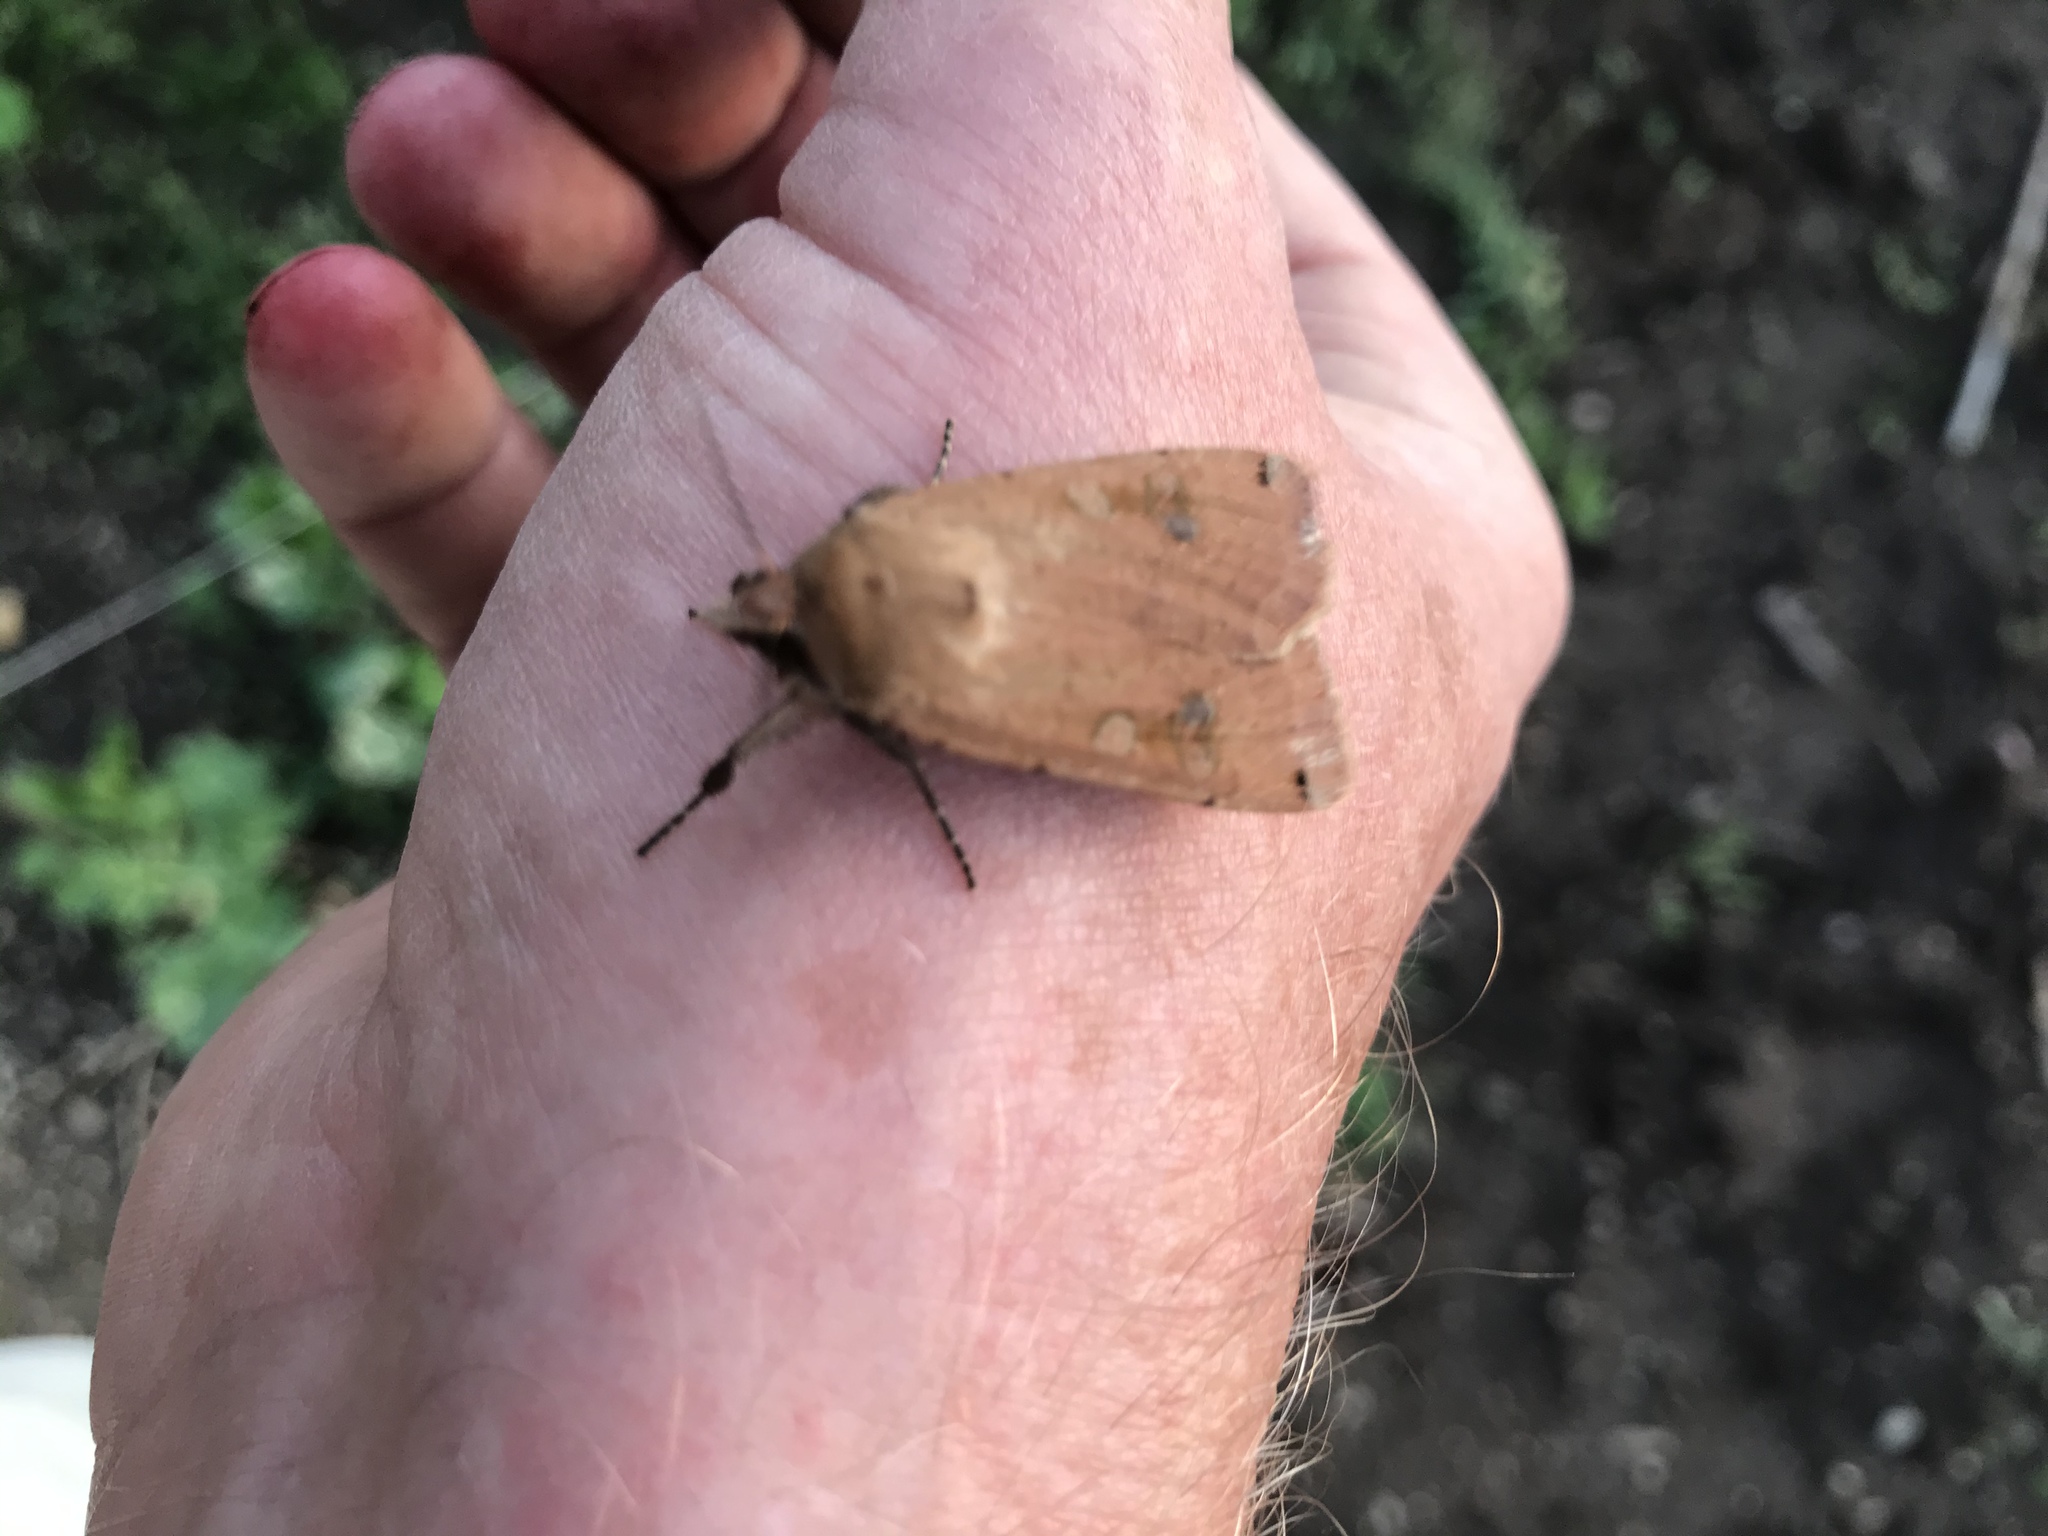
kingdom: Animalia
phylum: Arthropoda
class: Insecta
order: Lepidoptera
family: Noctuidae
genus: Noctua
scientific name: Noctua pronuba
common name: Large yellow underwing
